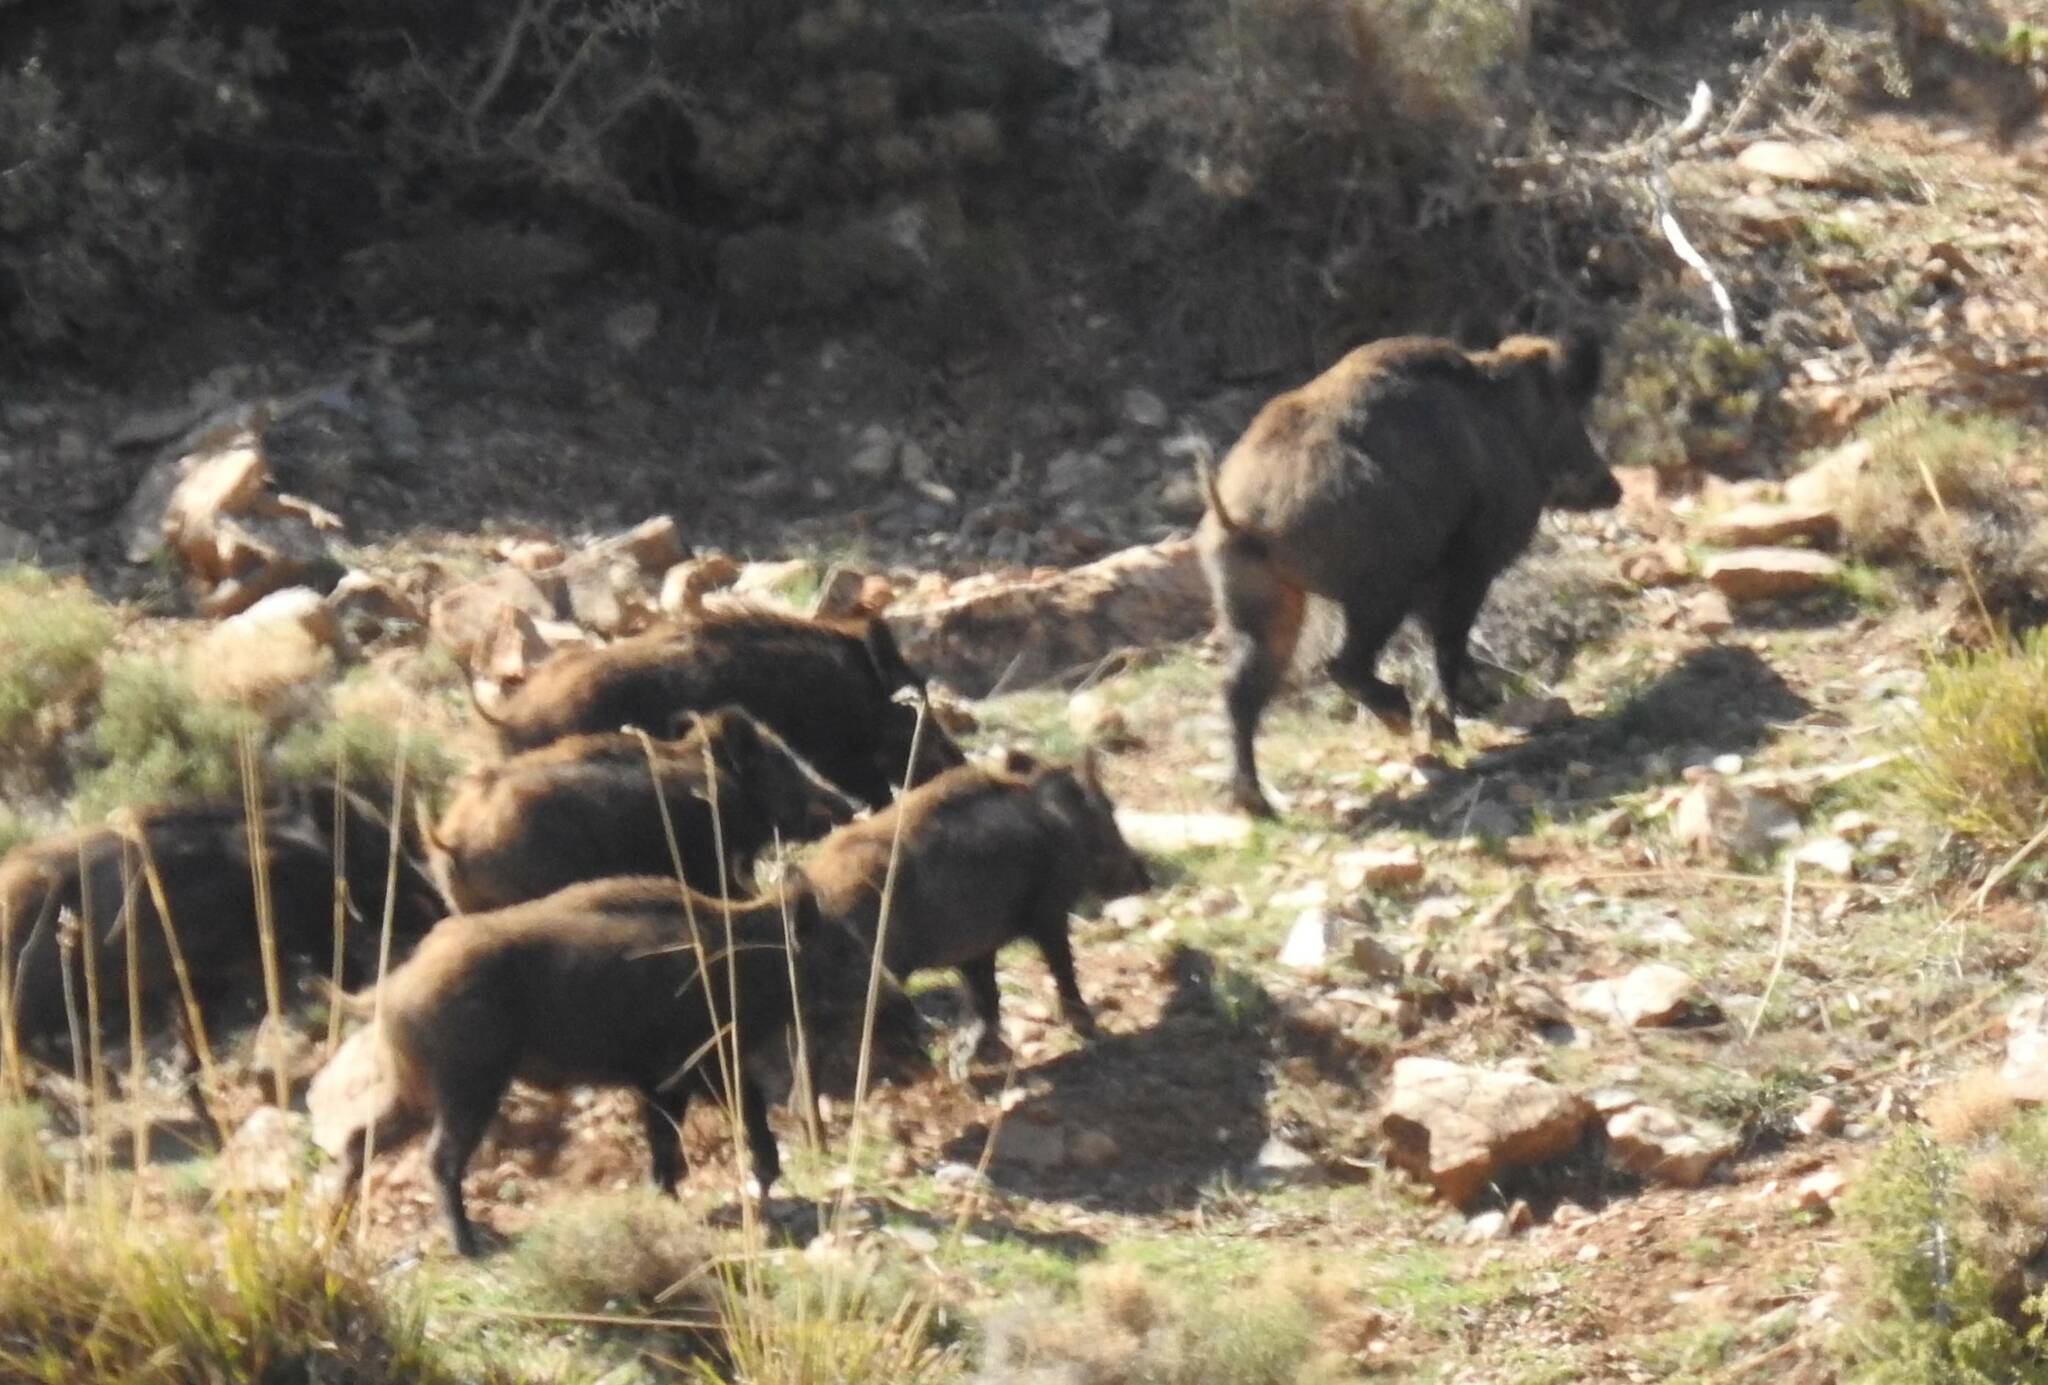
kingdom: Animalia
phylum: Chordata
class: Mammalia
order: Artiodactyla
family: Suidae
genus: Sus
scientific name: Sus scrofa
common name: Wild boar
